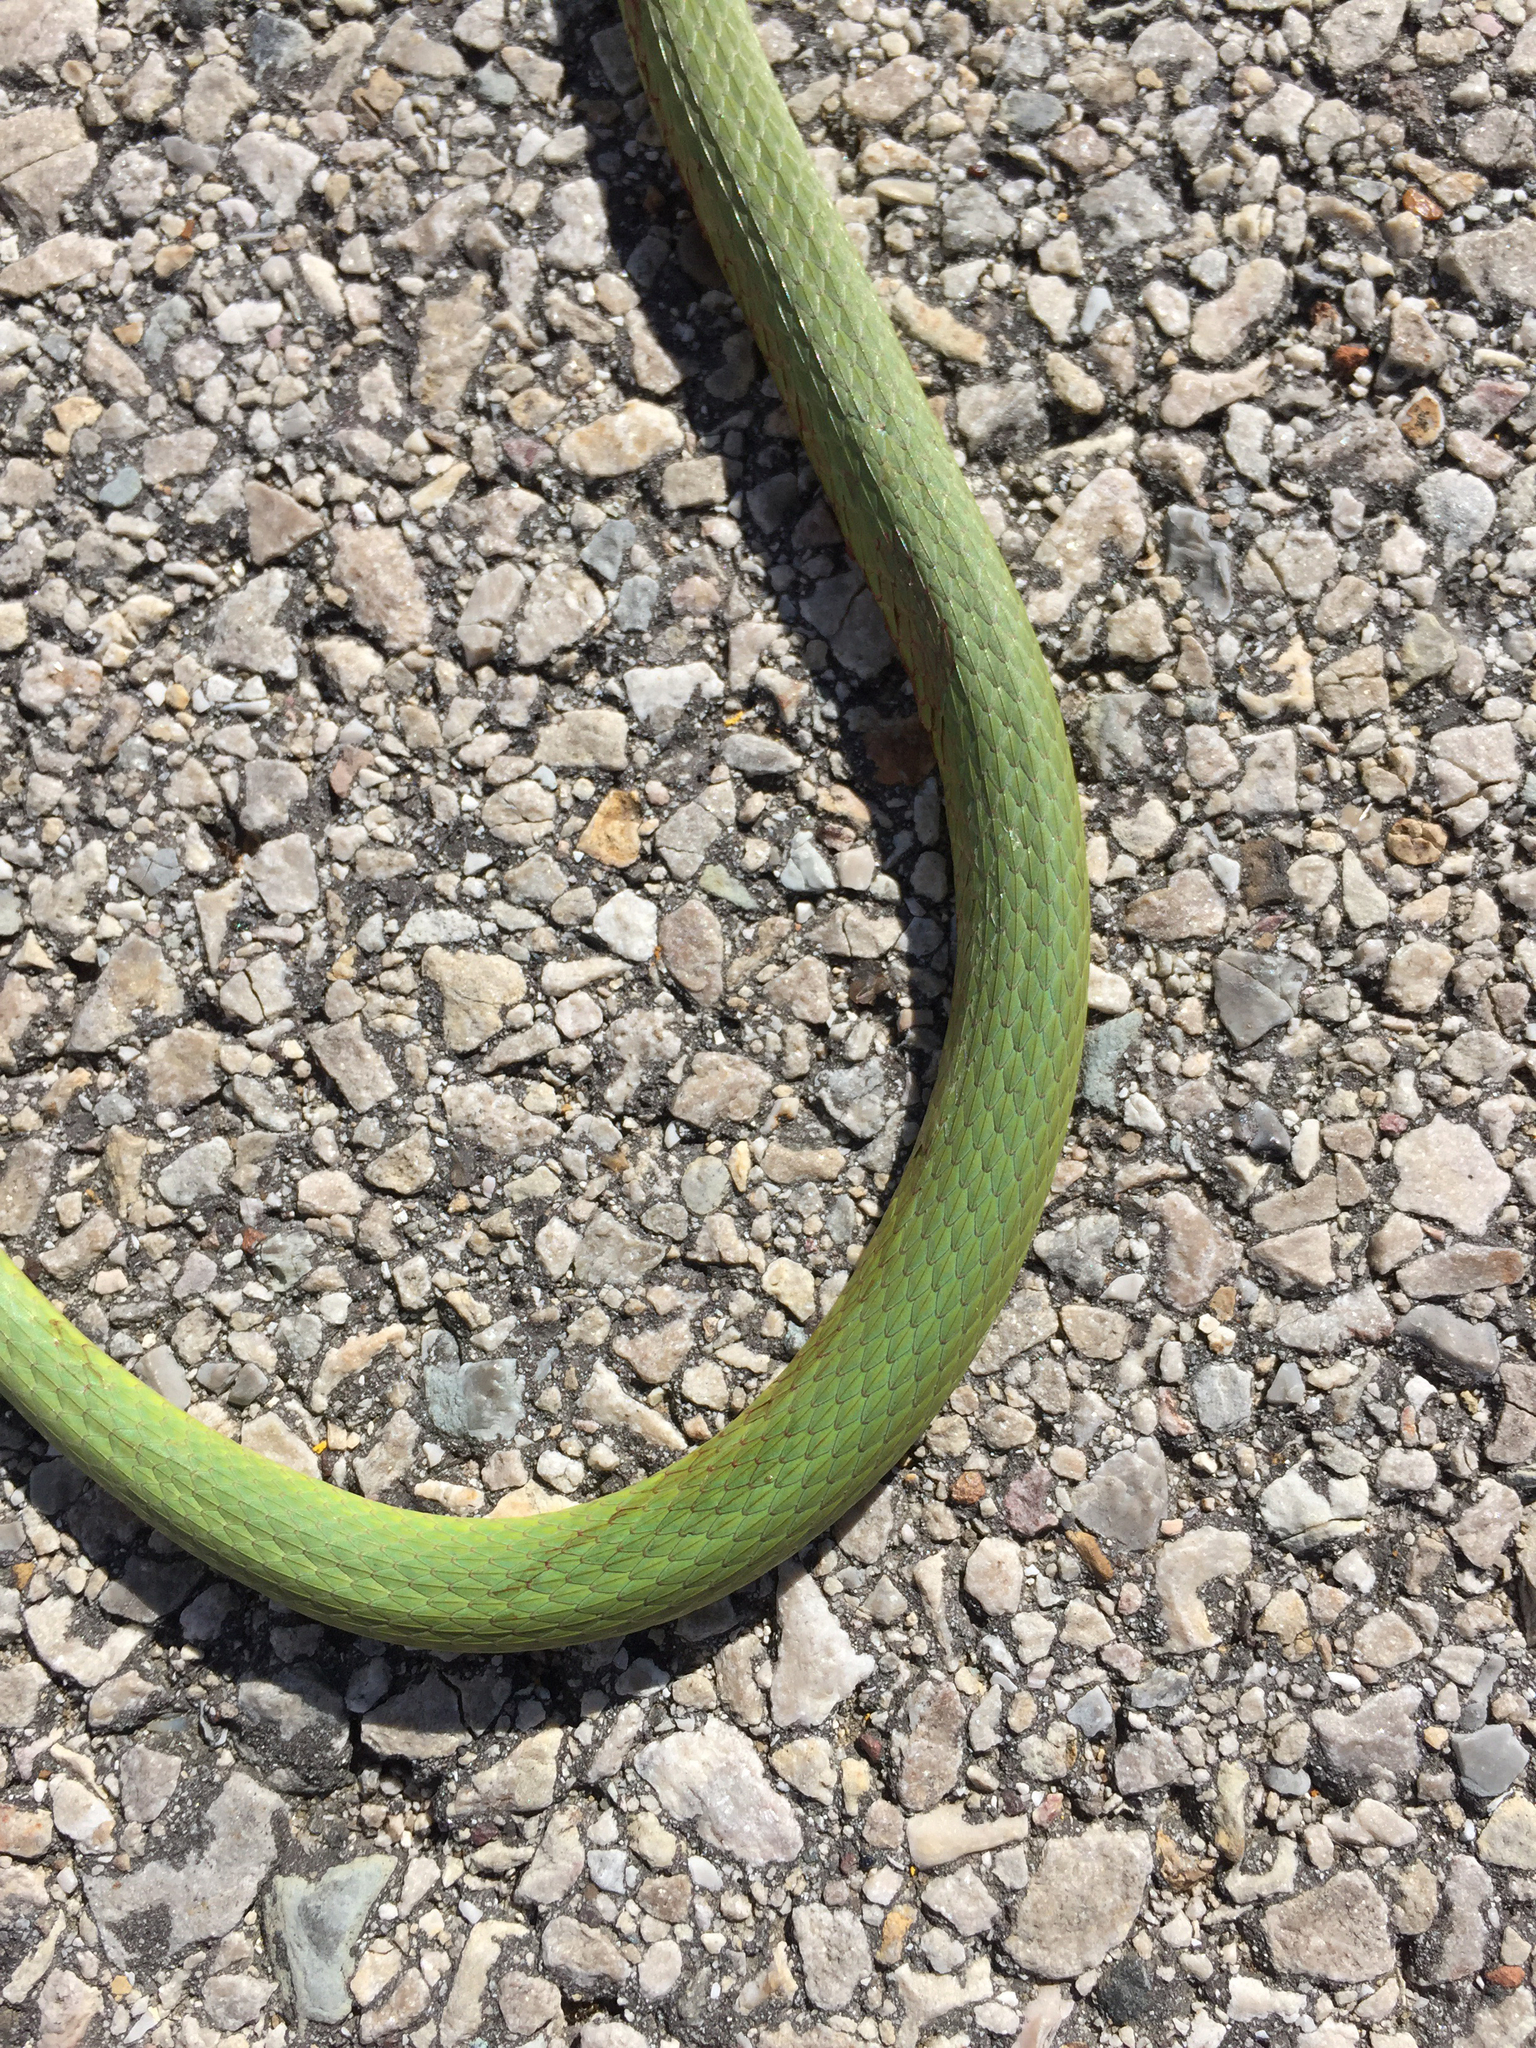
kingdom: Animalia
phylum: Chordata
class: Squamata
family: Colubridae
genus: Opheodrys
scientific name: Opheodrys aestivus
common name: Rough greensnake
